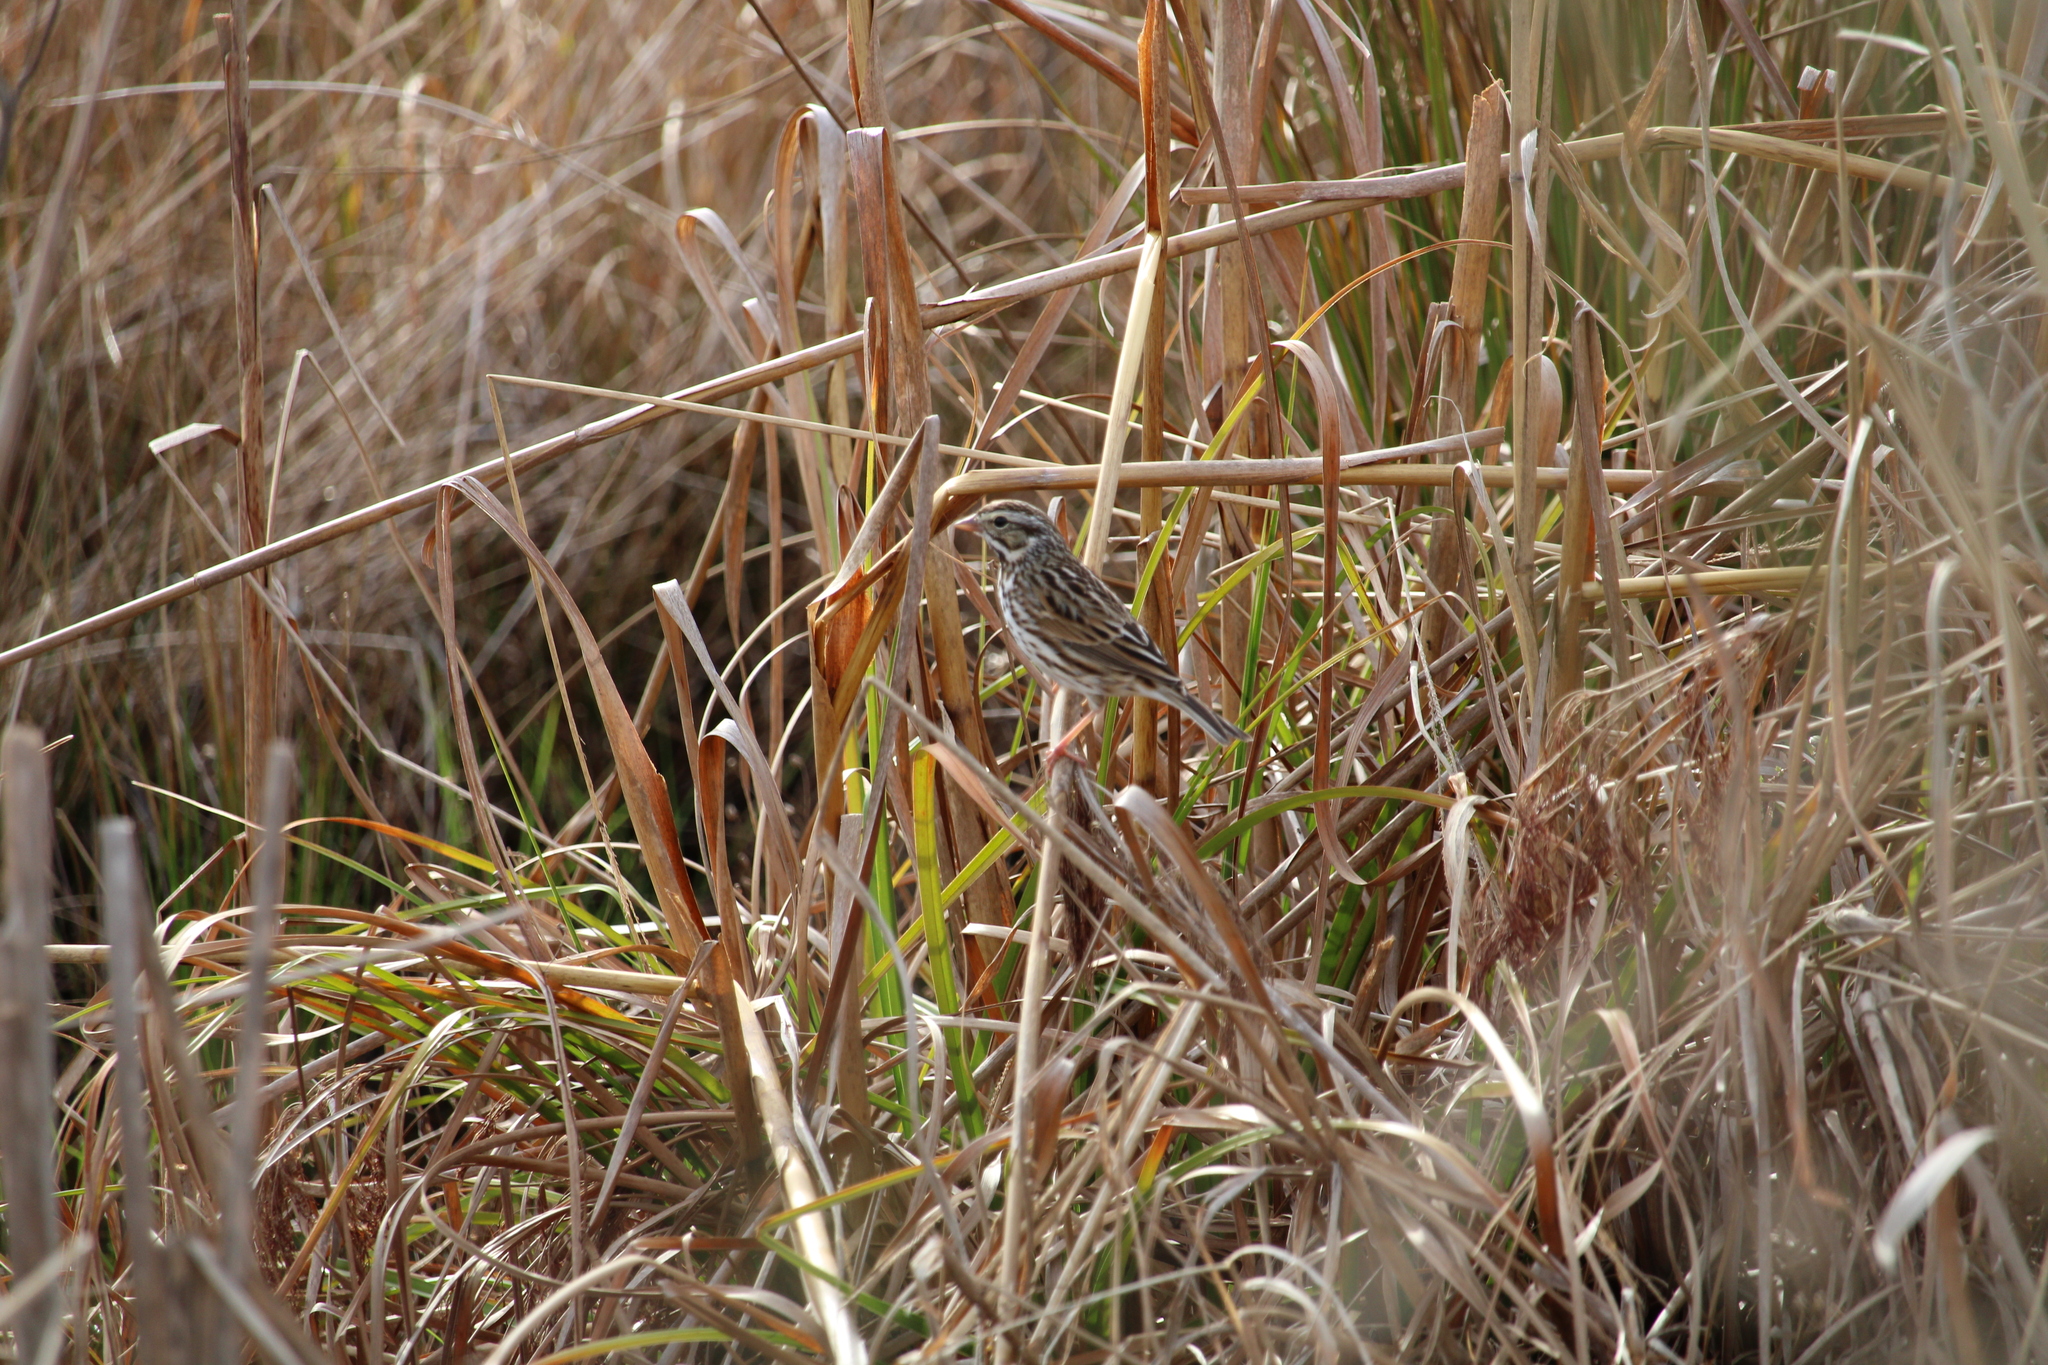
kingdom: Animalia
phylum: Chordata
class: Aves
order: Passeriformes
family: Passerellidae
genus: Passerculus
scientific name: Passerculus sandwichensis
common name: Savannah sparrow
